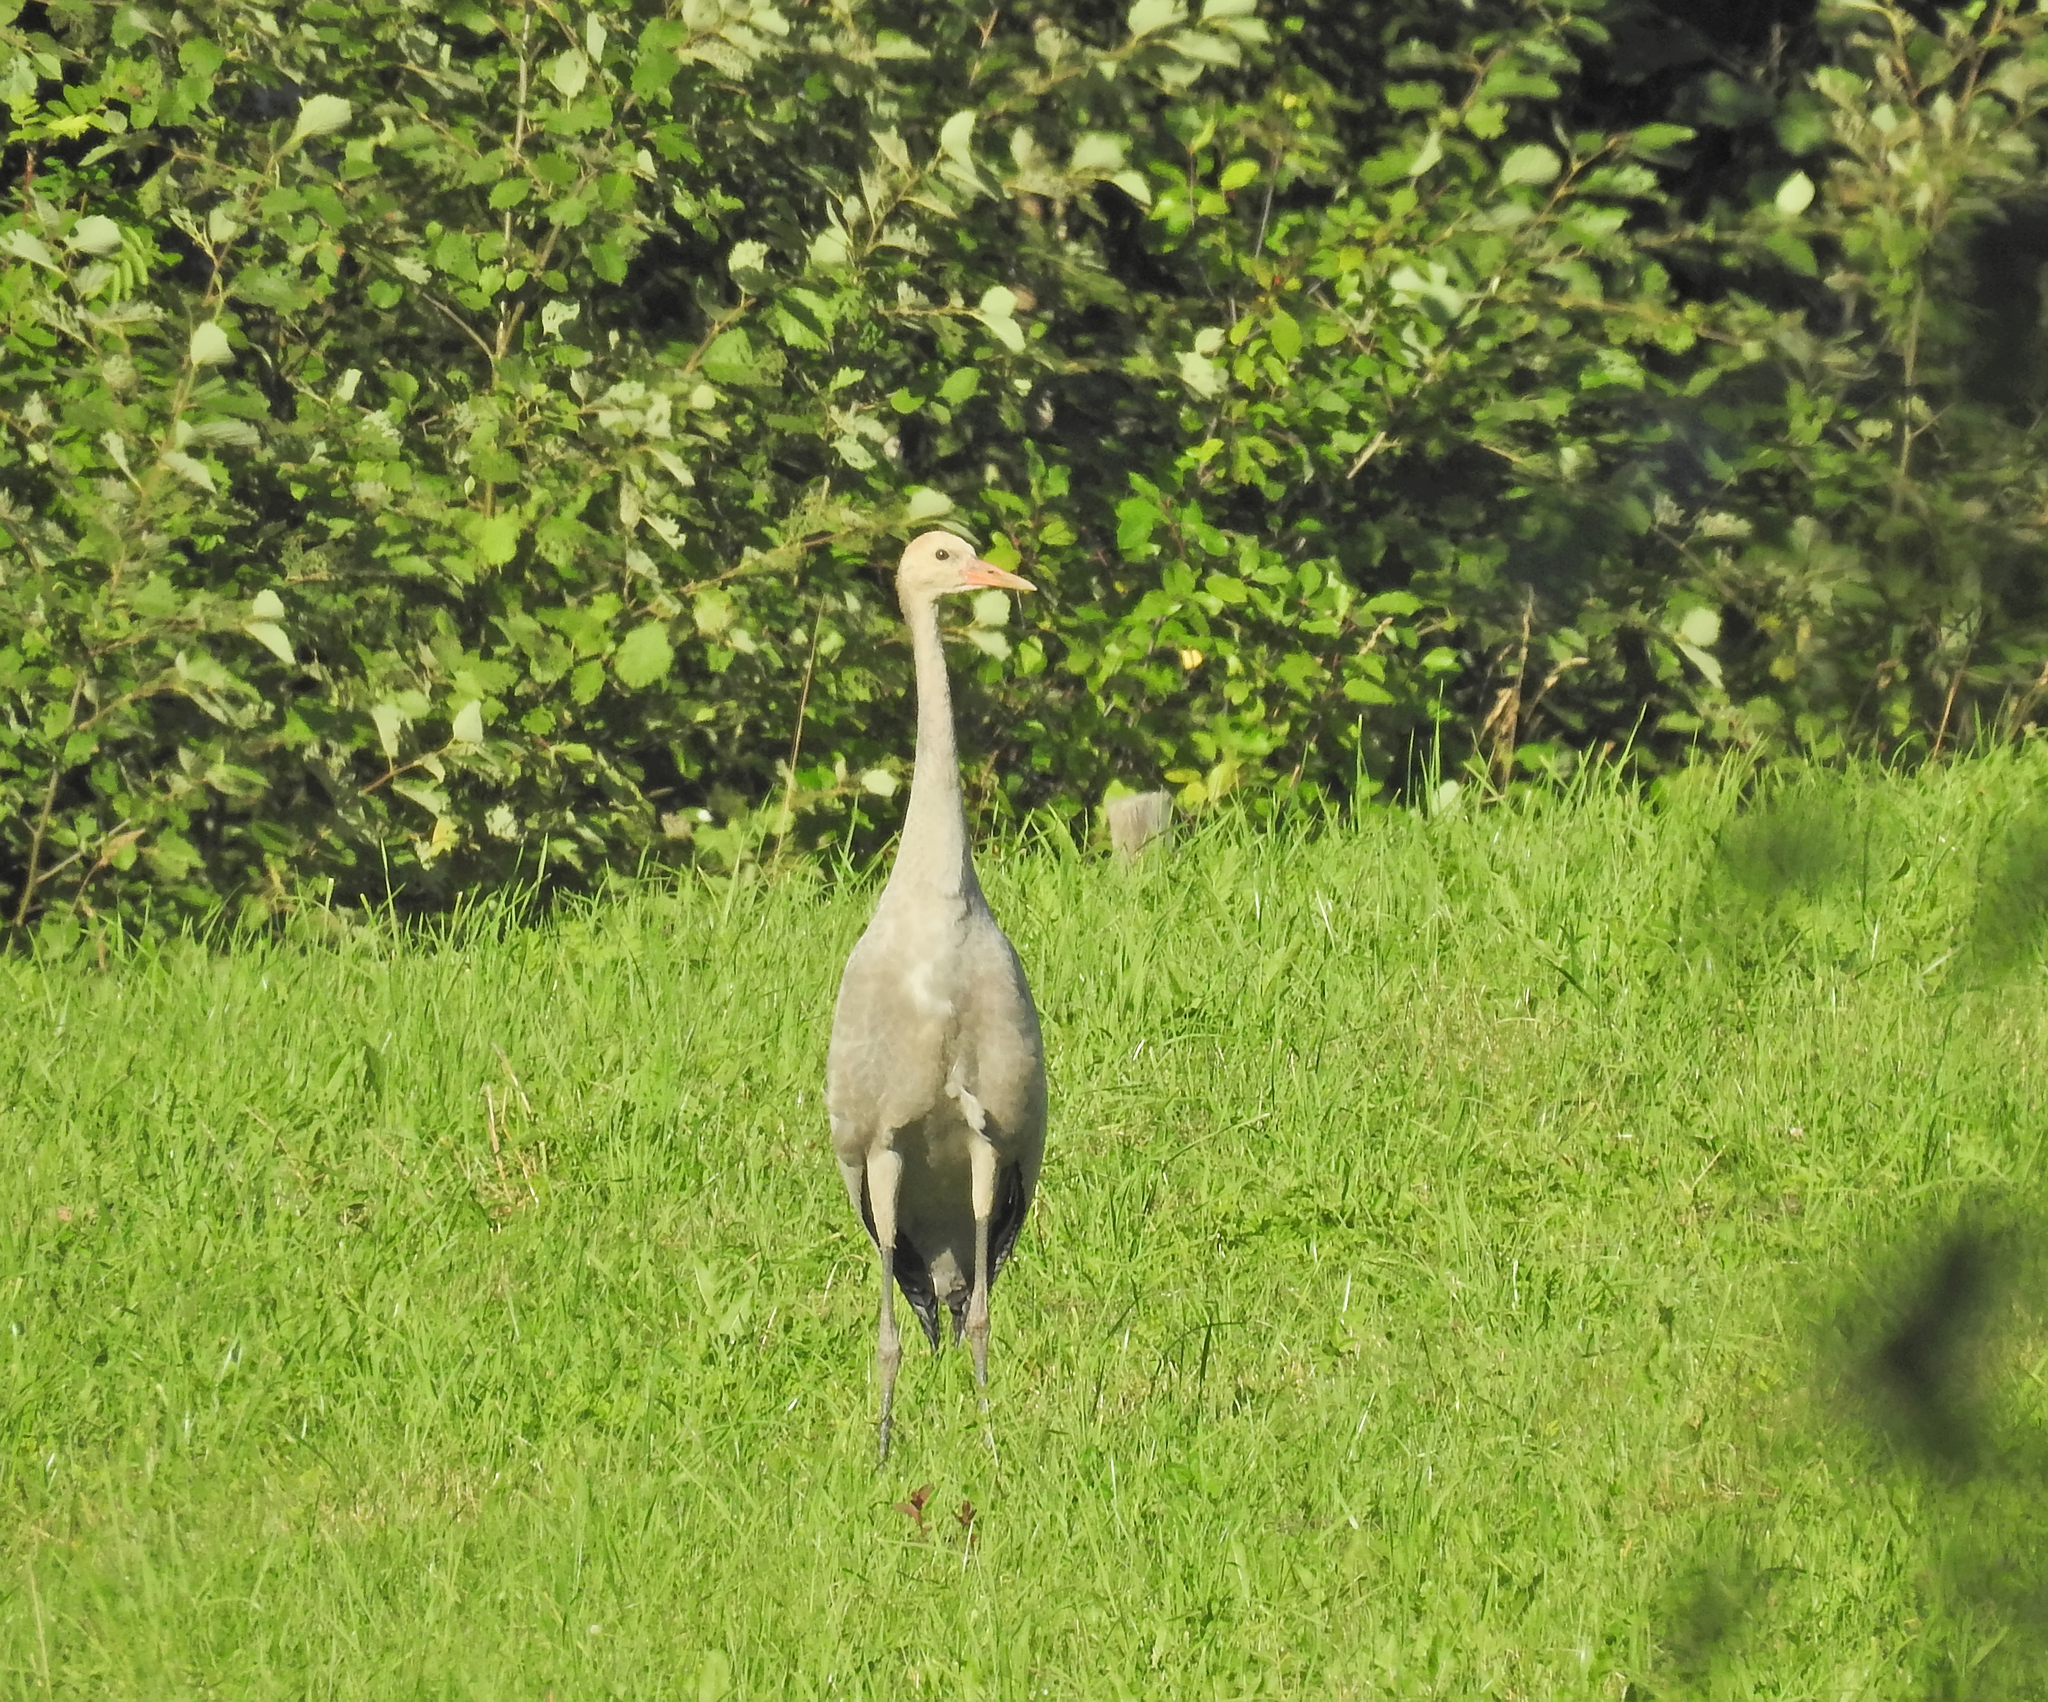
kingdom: Animalia
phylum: Chordata
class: Aves
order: Gruiformes
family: Gruidae
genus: Grus
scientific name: Grus grus
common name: Common crane
